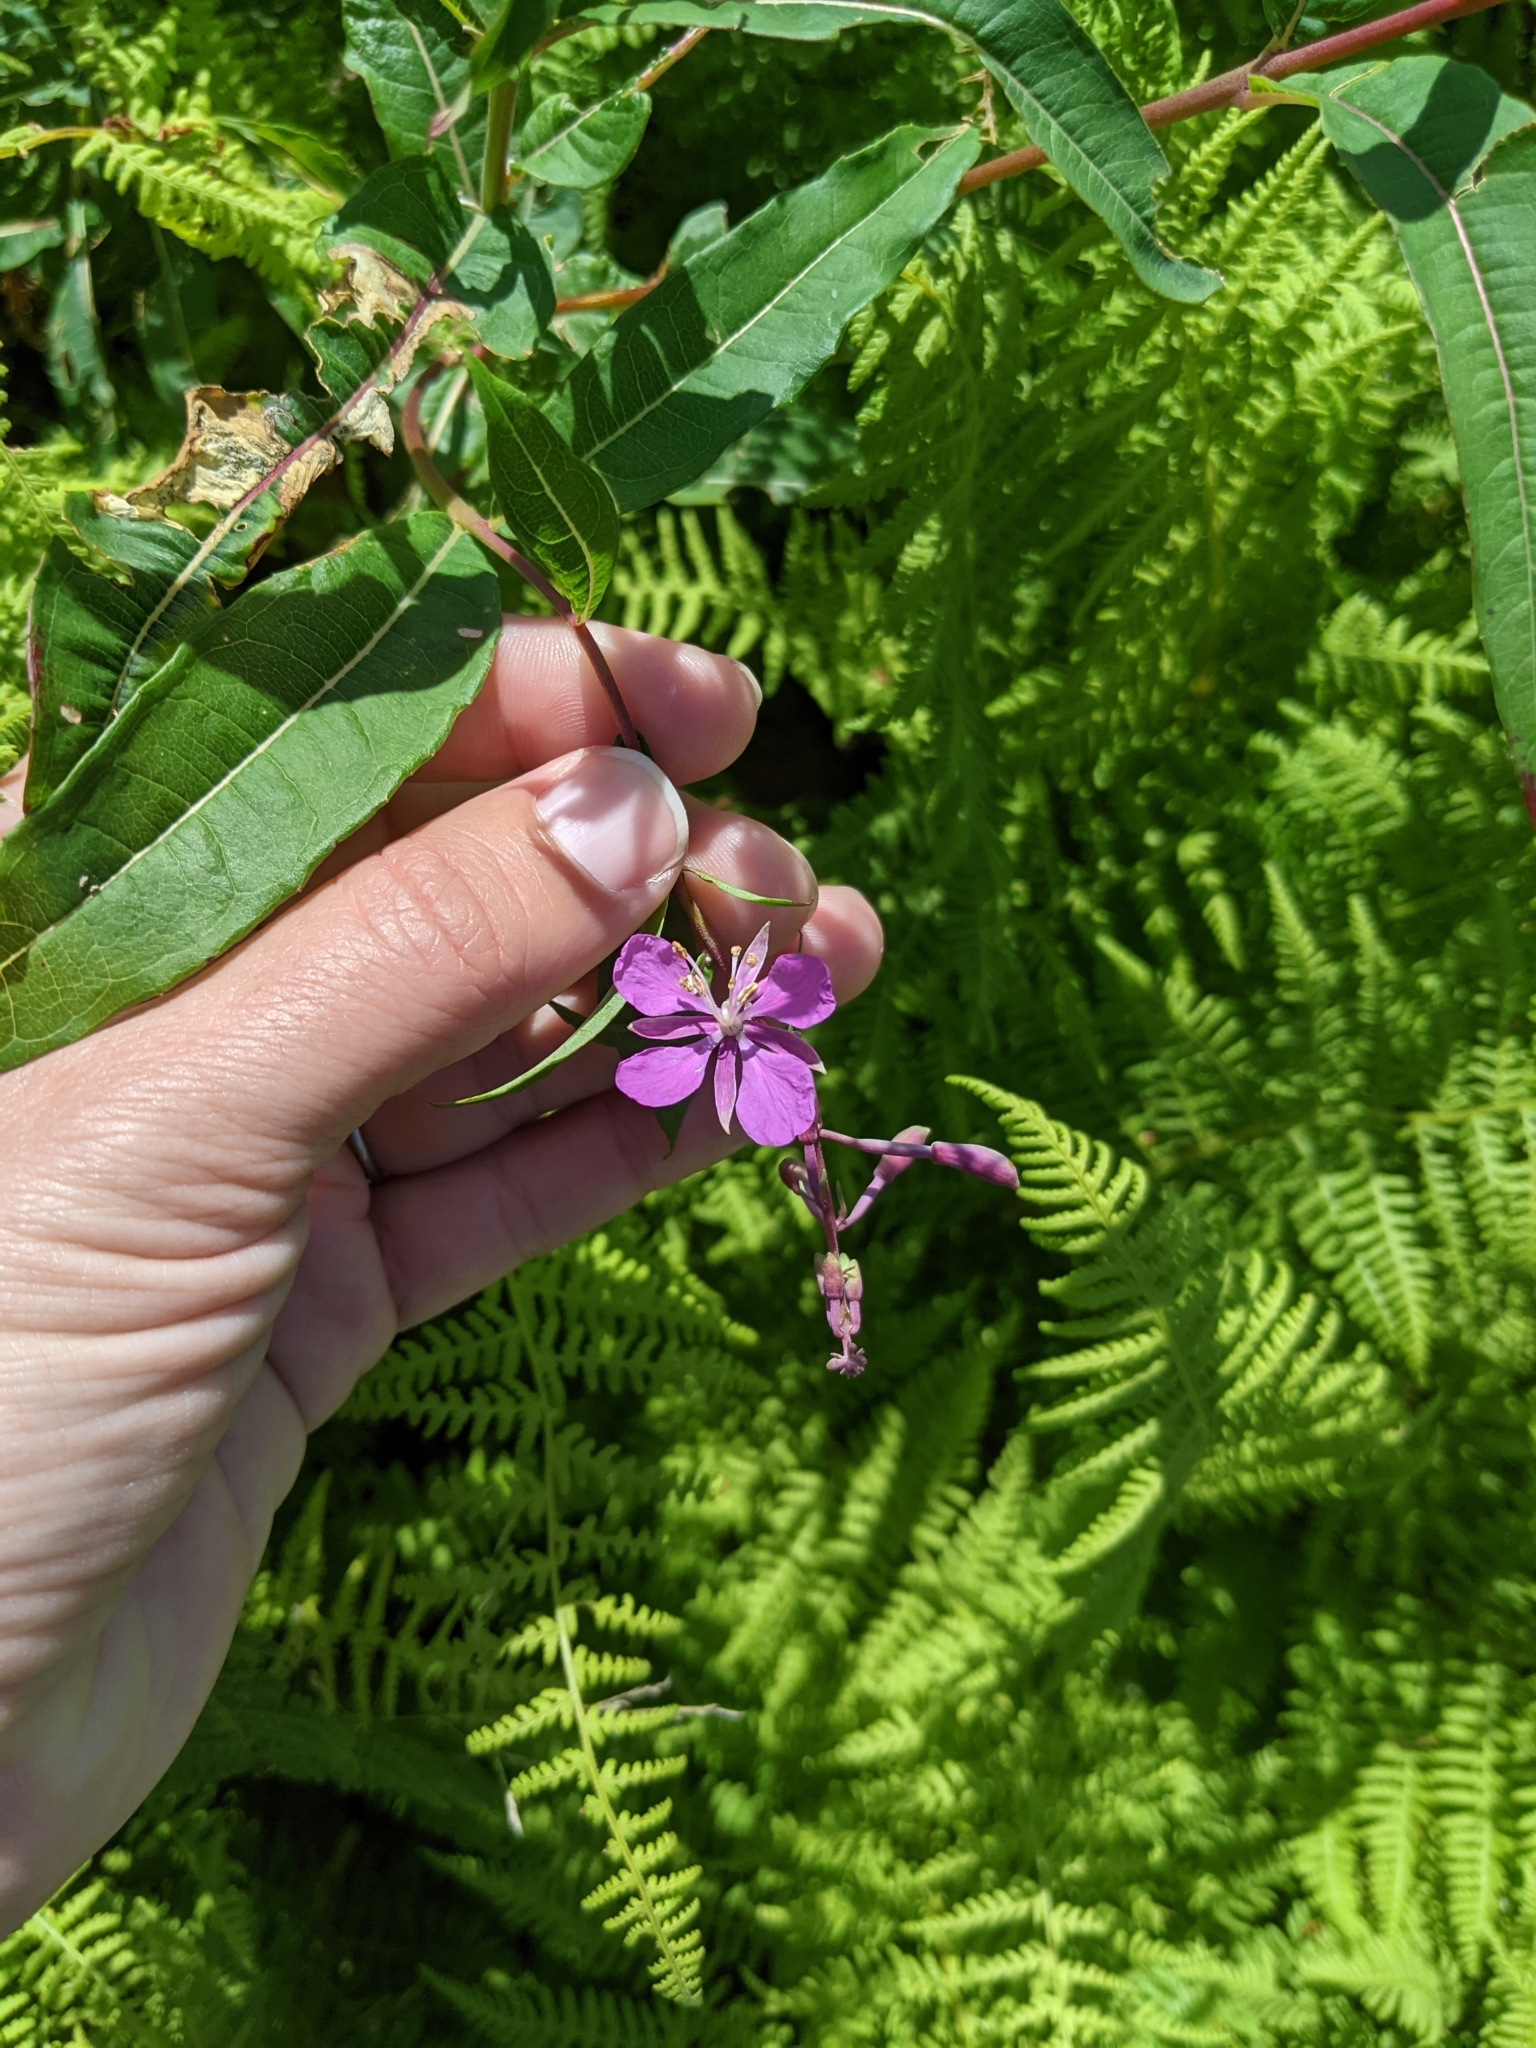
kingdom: Plantae
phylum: Tracheophyta
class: Magnoliopsida
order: Myrtales
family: Onagraceae
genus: Chamaenerion
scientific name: Chamaenerion angustifolium
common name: Fireweed
